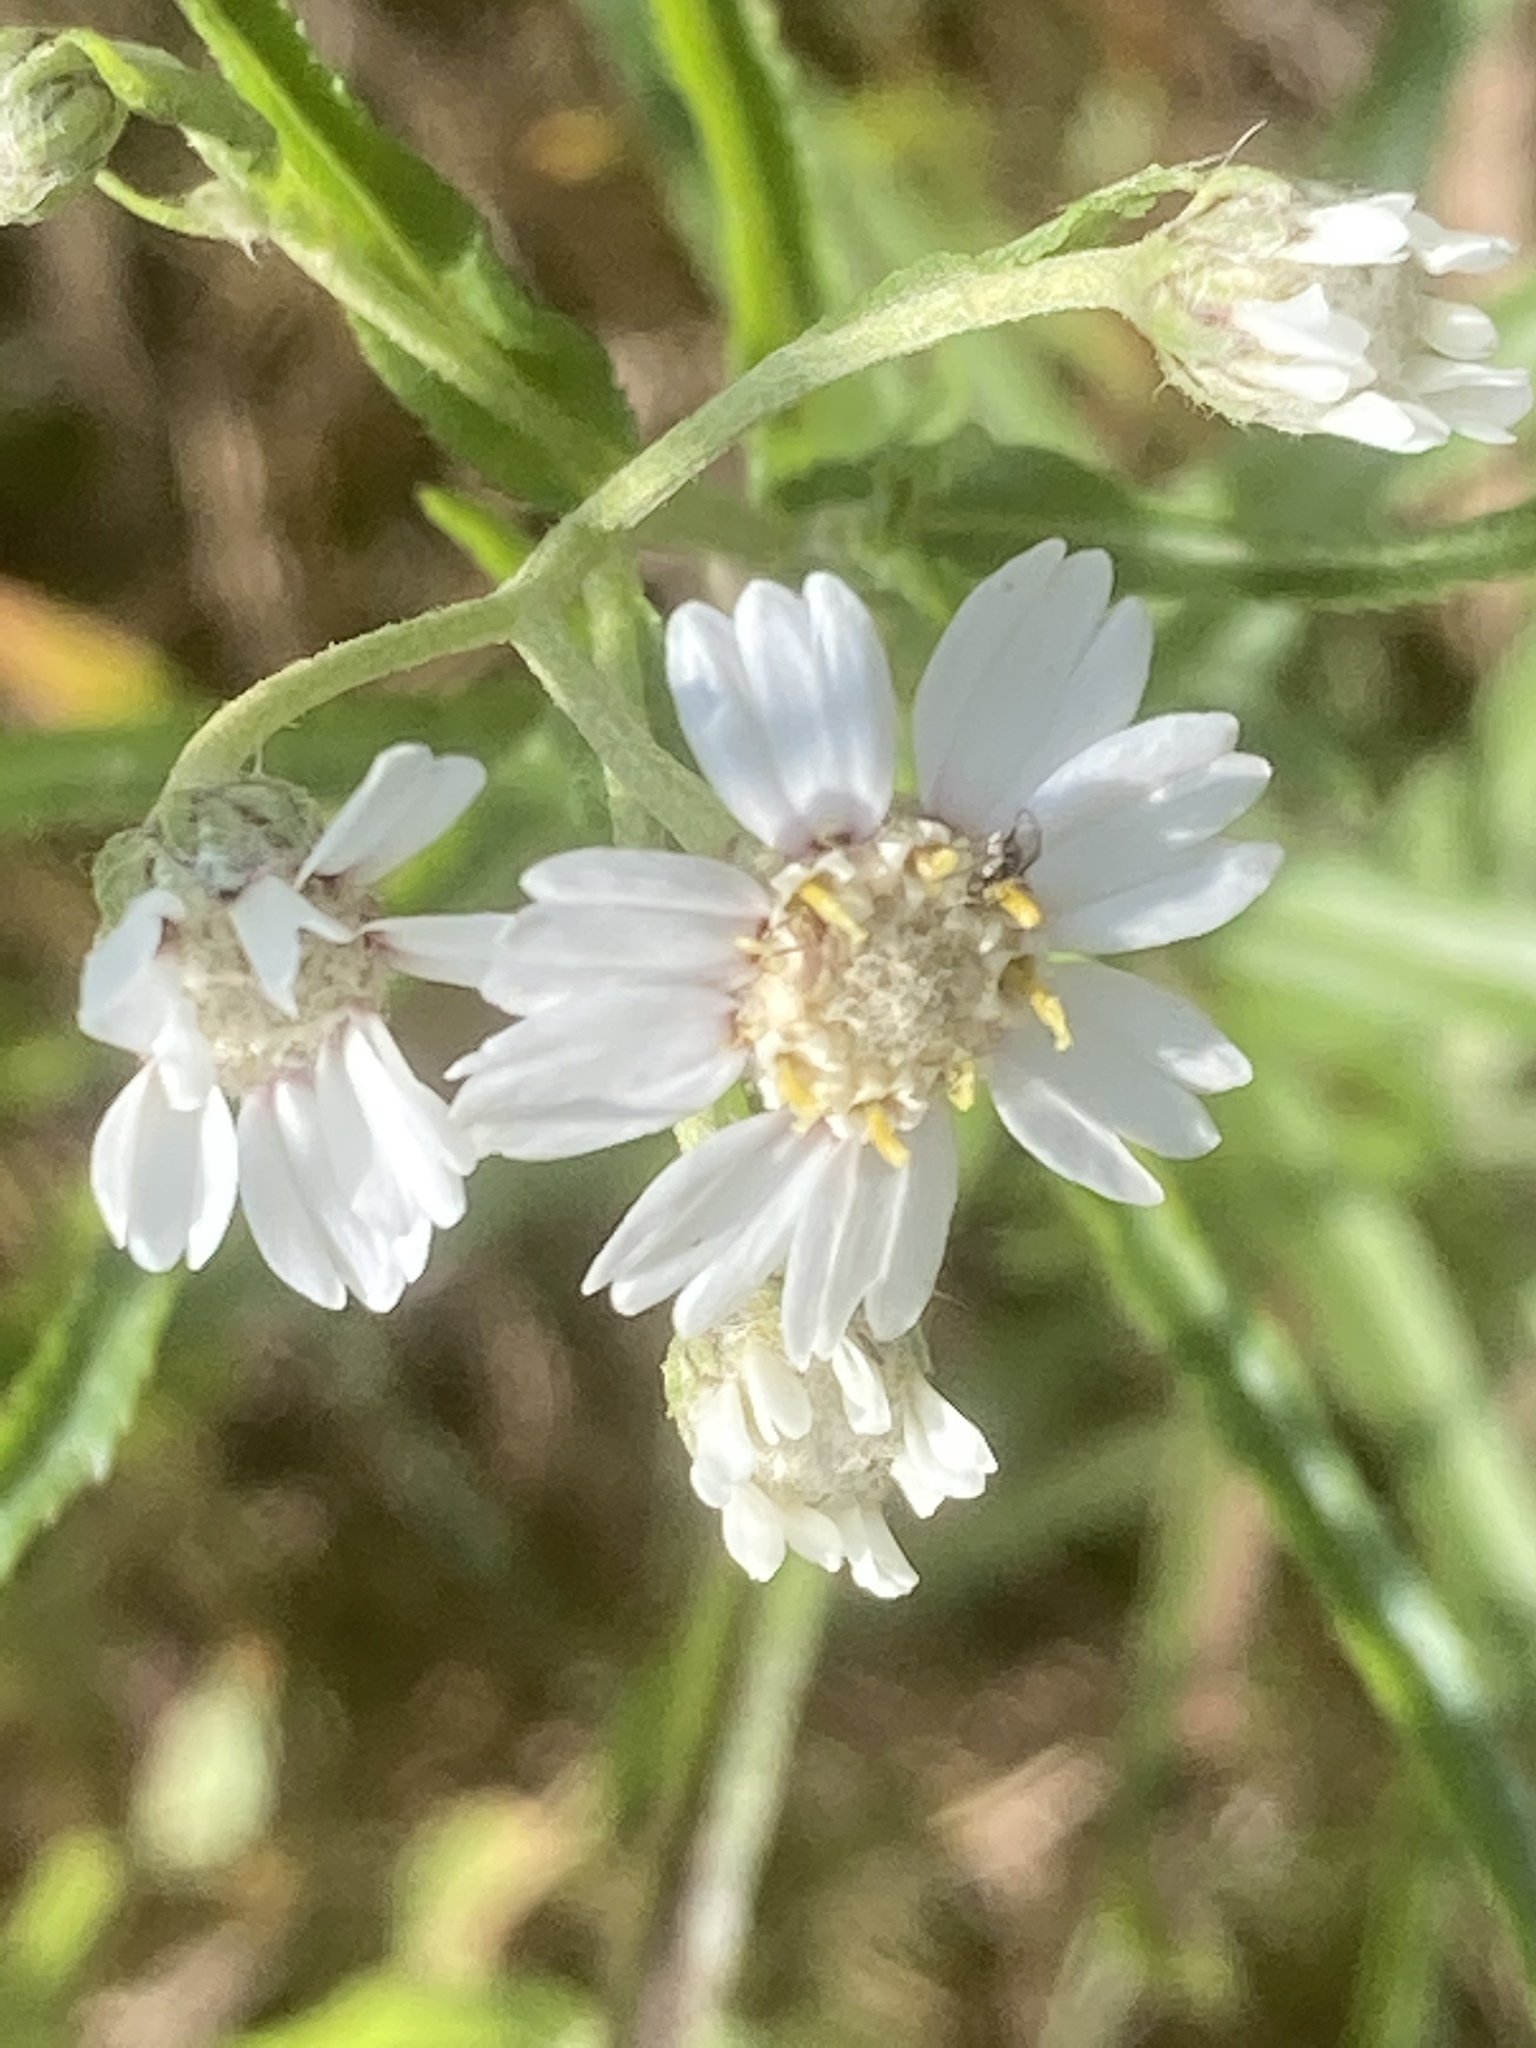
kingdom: Plantae
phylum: Tracheophyta
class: Magnoliopsida
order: Asterales
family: Asteraceae
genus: Achillea
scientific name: Achillea ptarmica
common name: Sneezeweed
